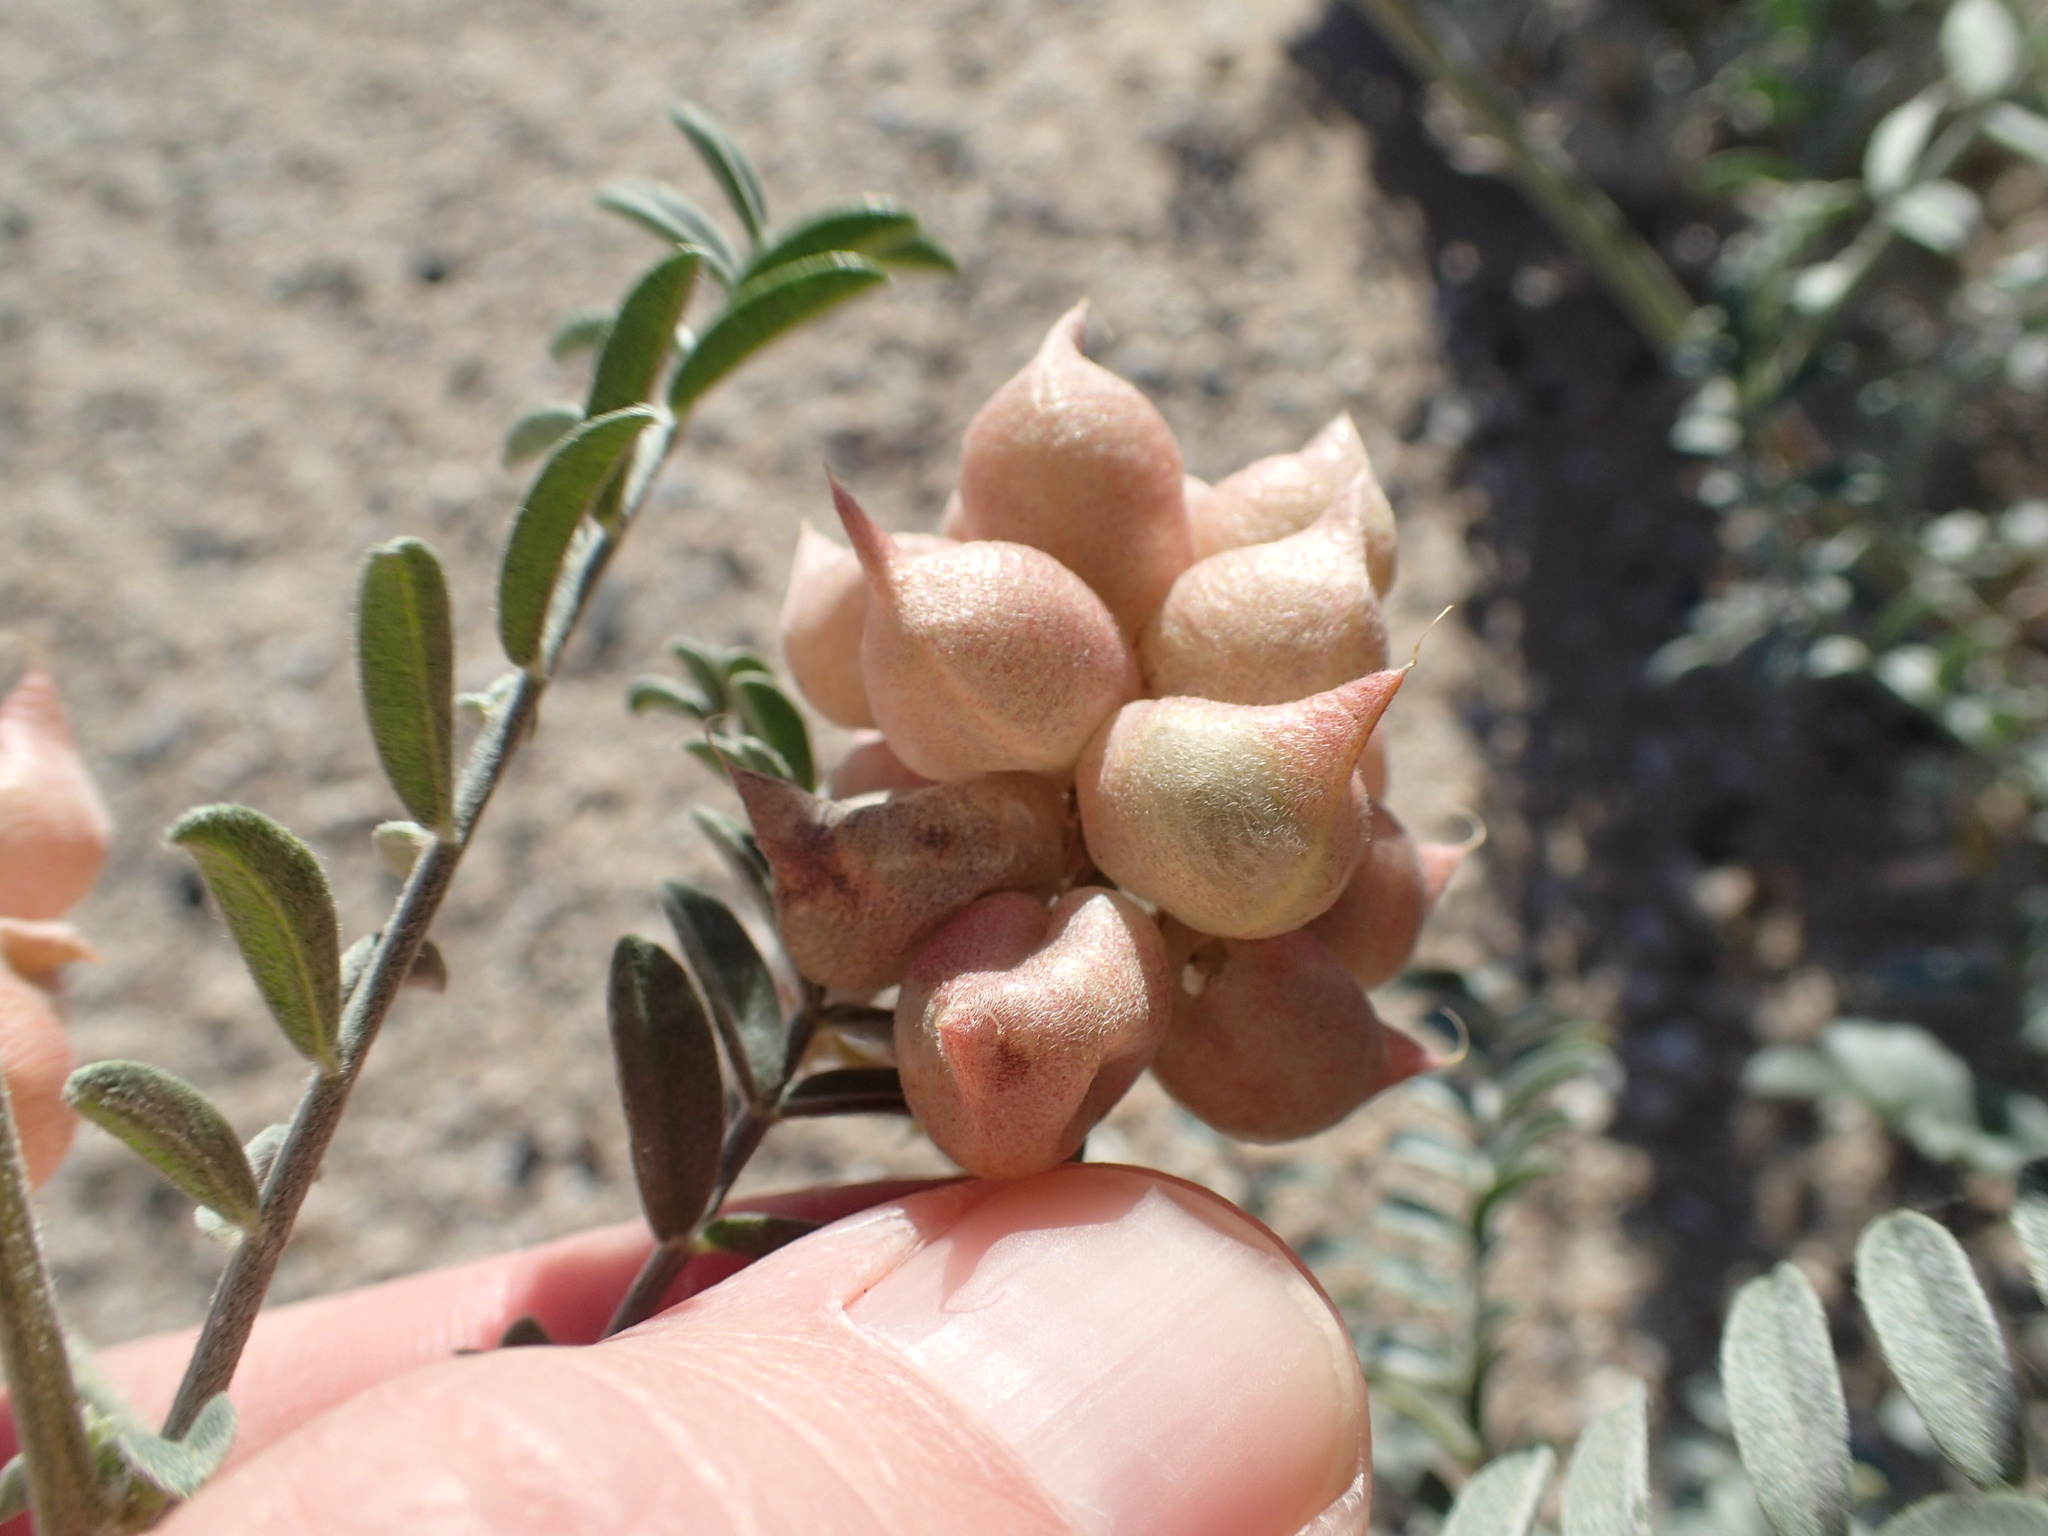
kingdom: Plantae
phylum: Tracheophyta
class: Magnoliopsida
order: Fabales
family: Fabaceae
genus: Astragalus
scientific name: Astragalus magdalenae
